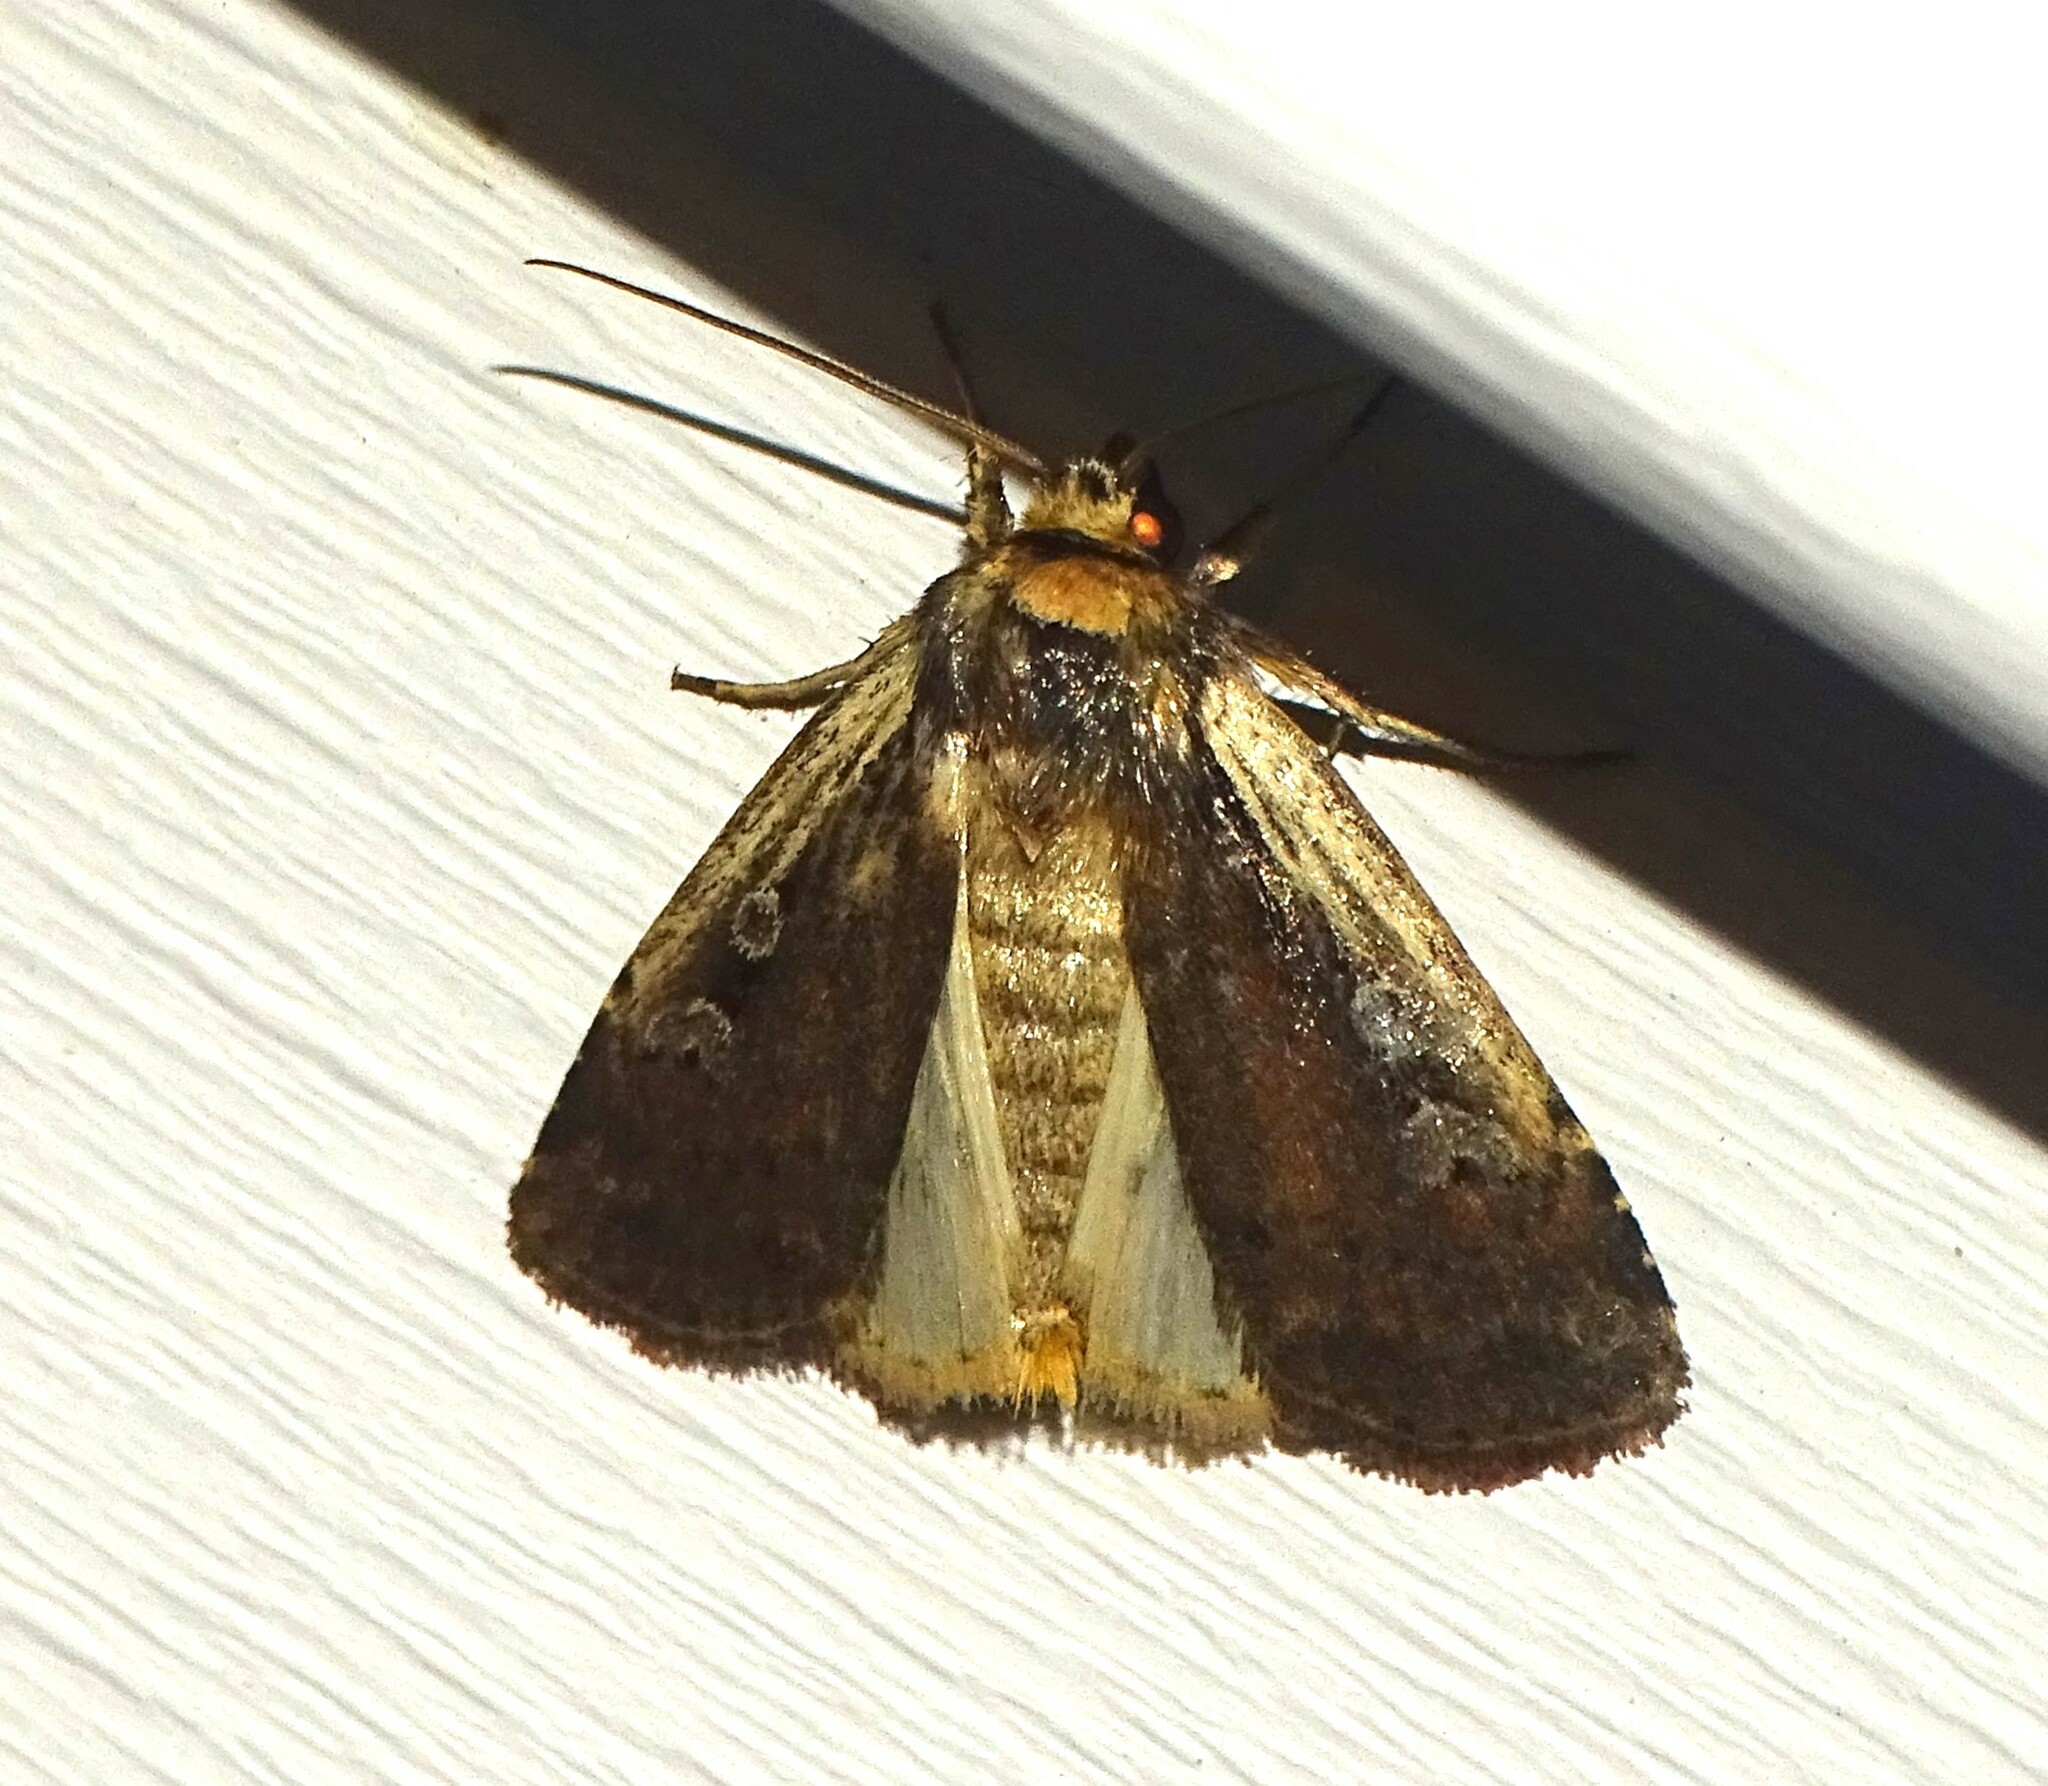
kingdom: Animalia
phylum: Arthropoda
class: Insecta
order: Lepidoptera
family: Noctuidae
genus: Ochropleura
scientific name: Ochropleura implecta
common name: Flame-shouldered dart
